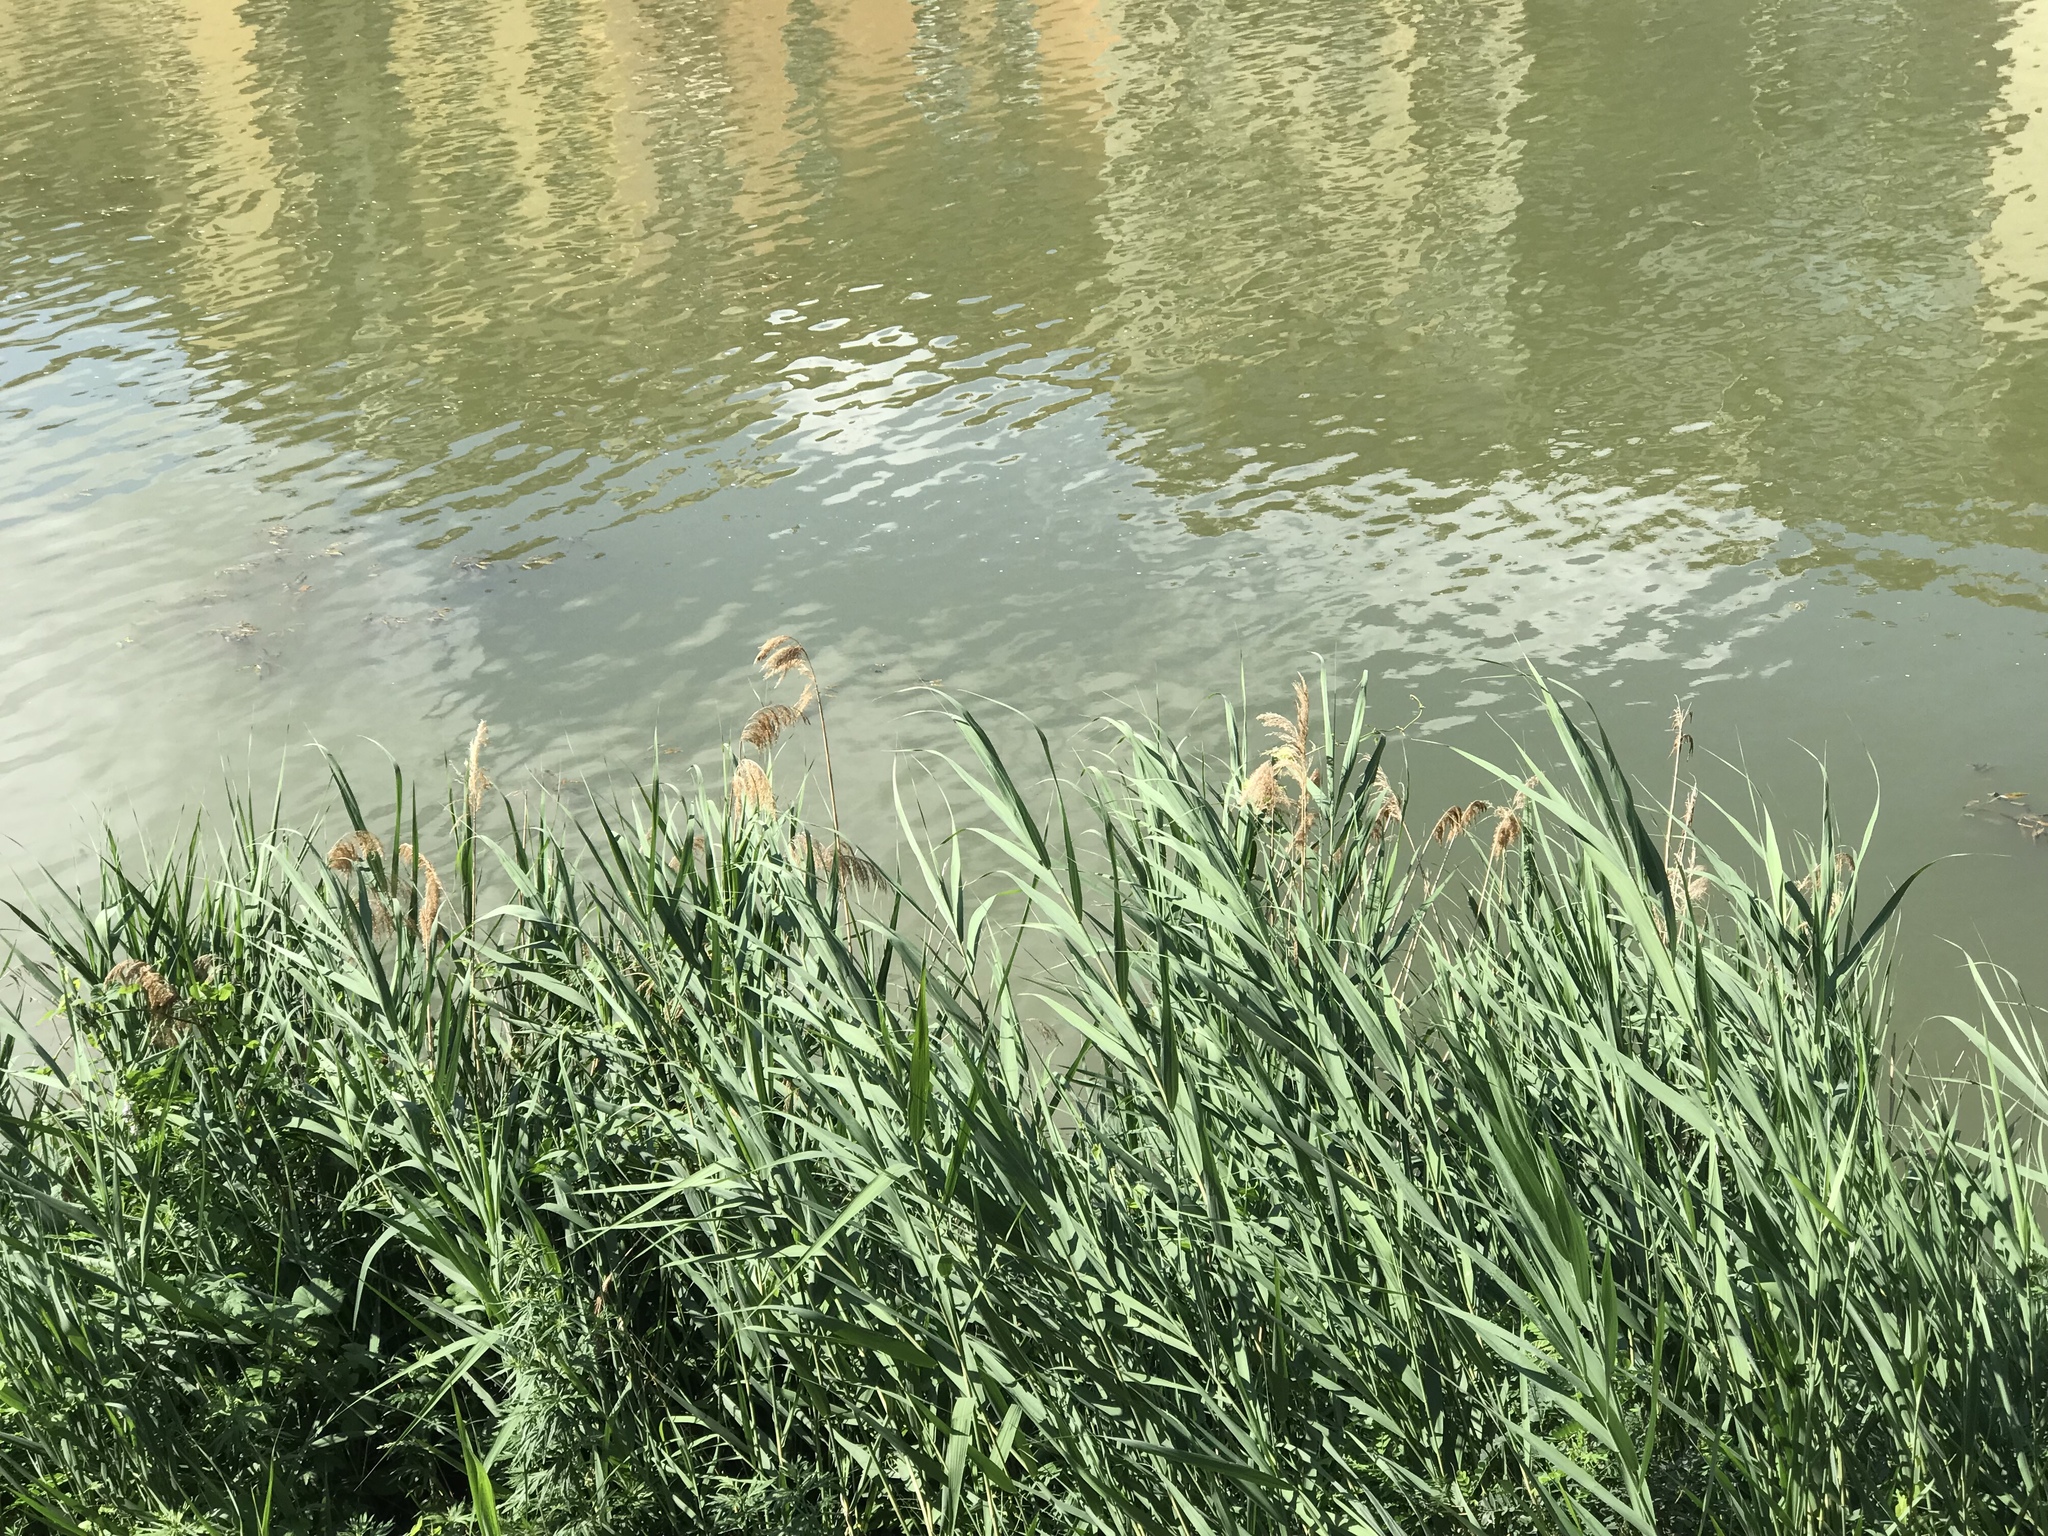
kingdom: Plantae
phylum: Tracheophyta
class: Liliopsida
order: Poales
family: Poaceae
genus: Phragmites
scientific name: Phragmites australis
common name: Common reed
